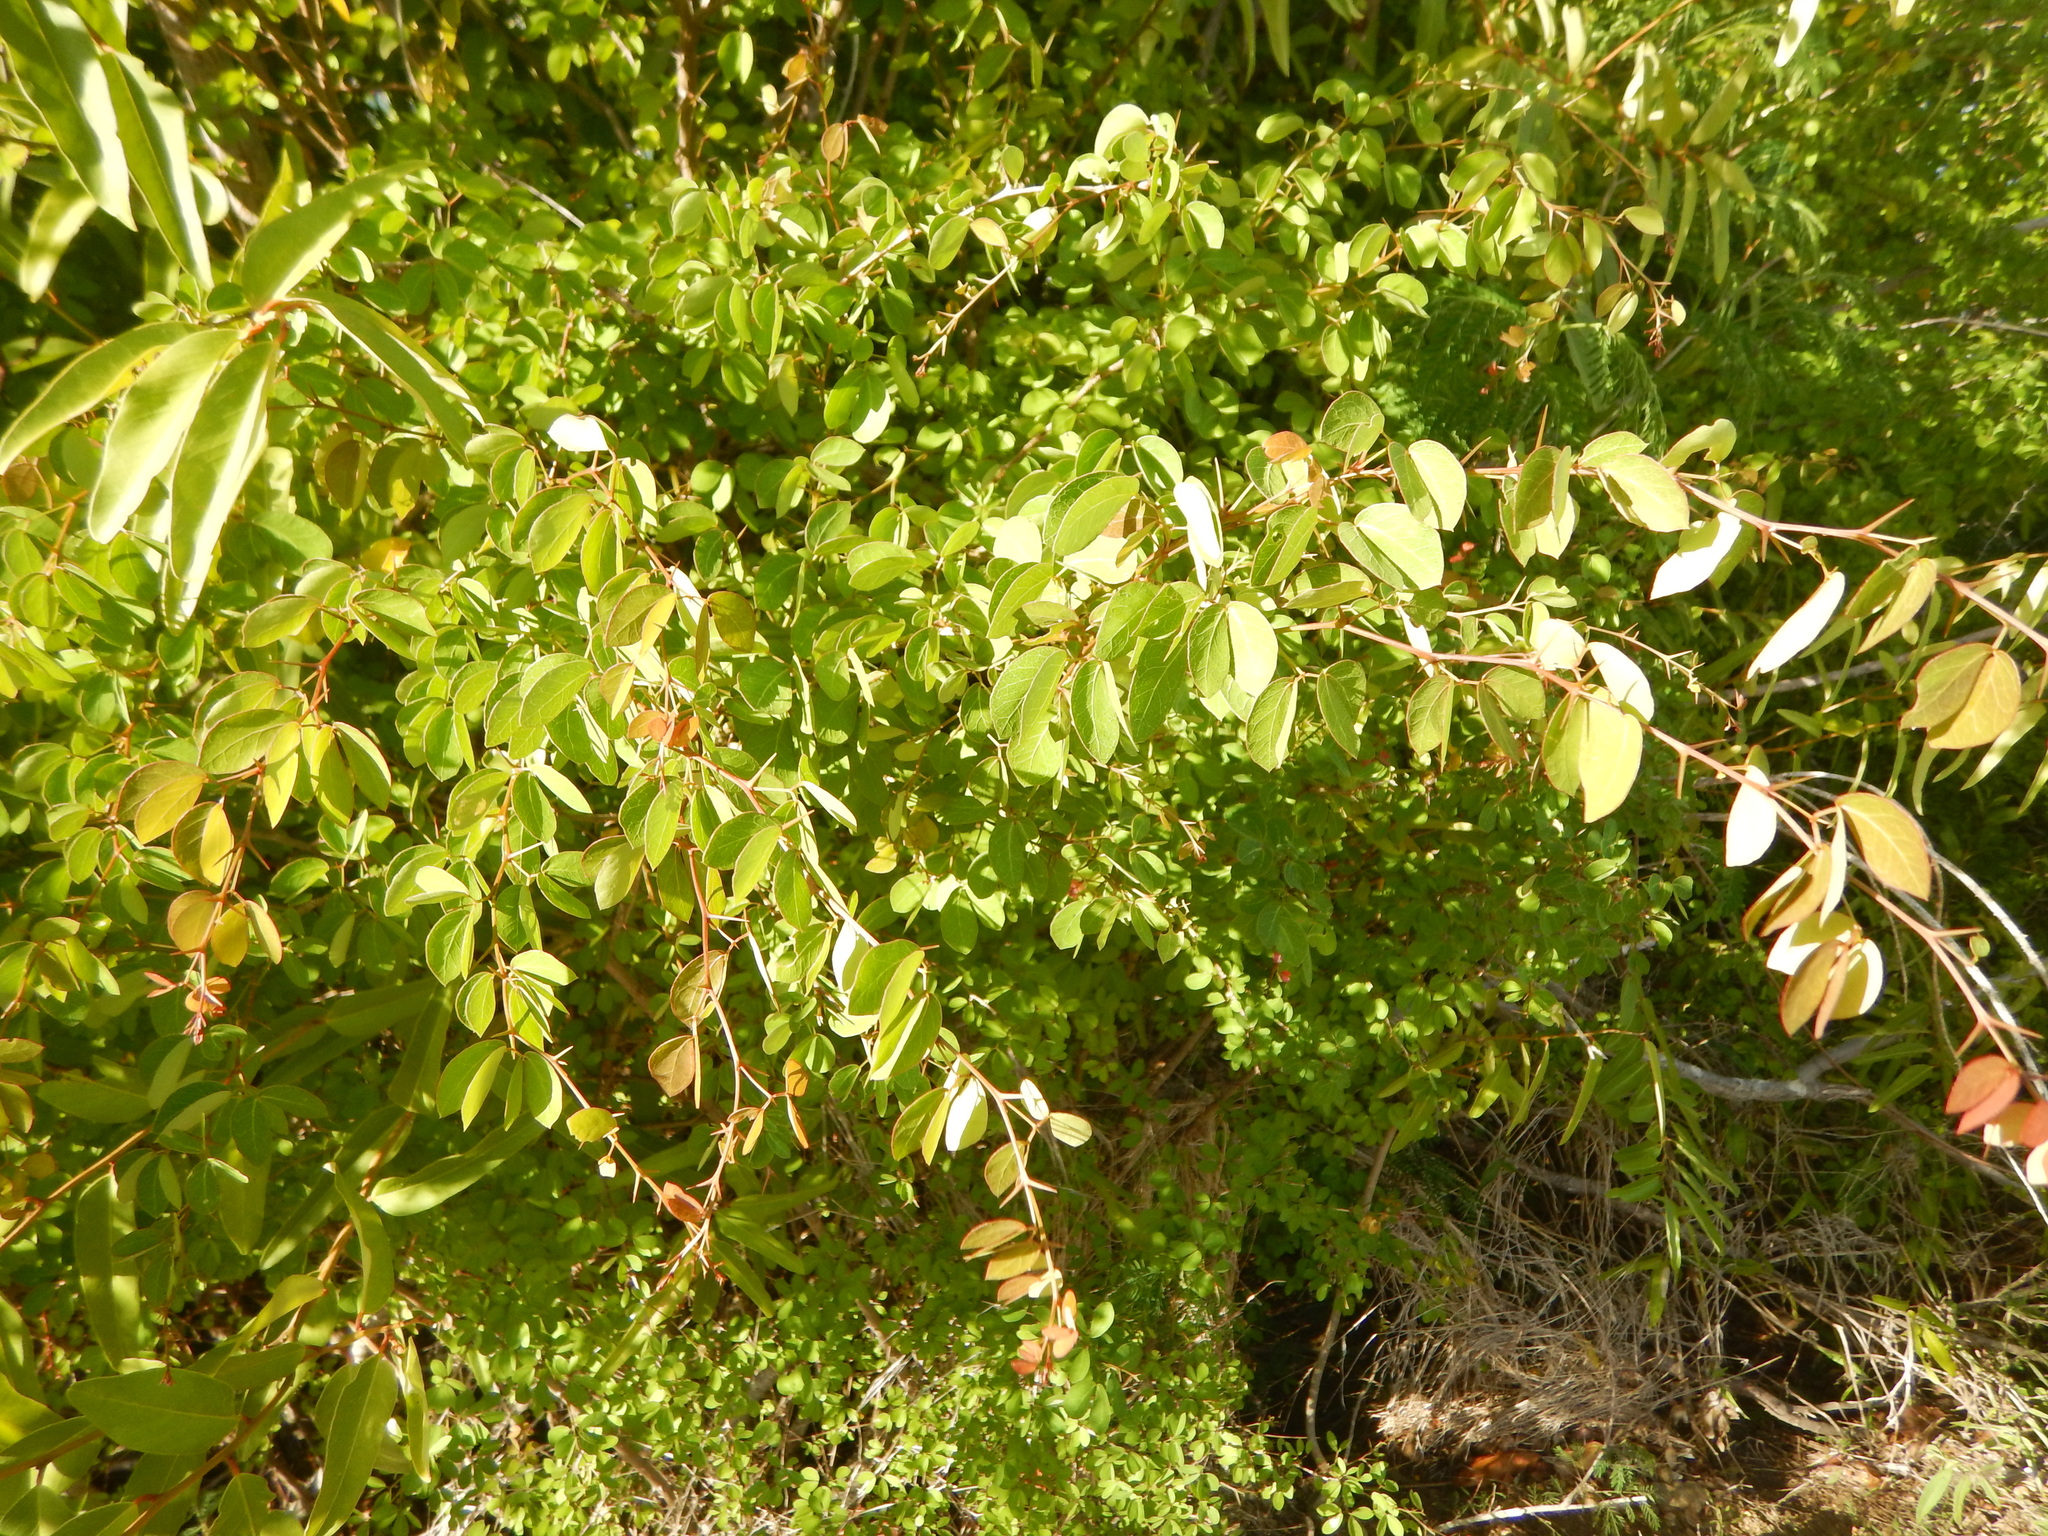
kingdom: Plantae
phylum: Tracheophyta
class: Magnoliopsida
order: Fabales
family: Fabaceae
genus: Pithecellobium
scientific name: Pithecellobium unguis-cati
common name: Cat's-claw
